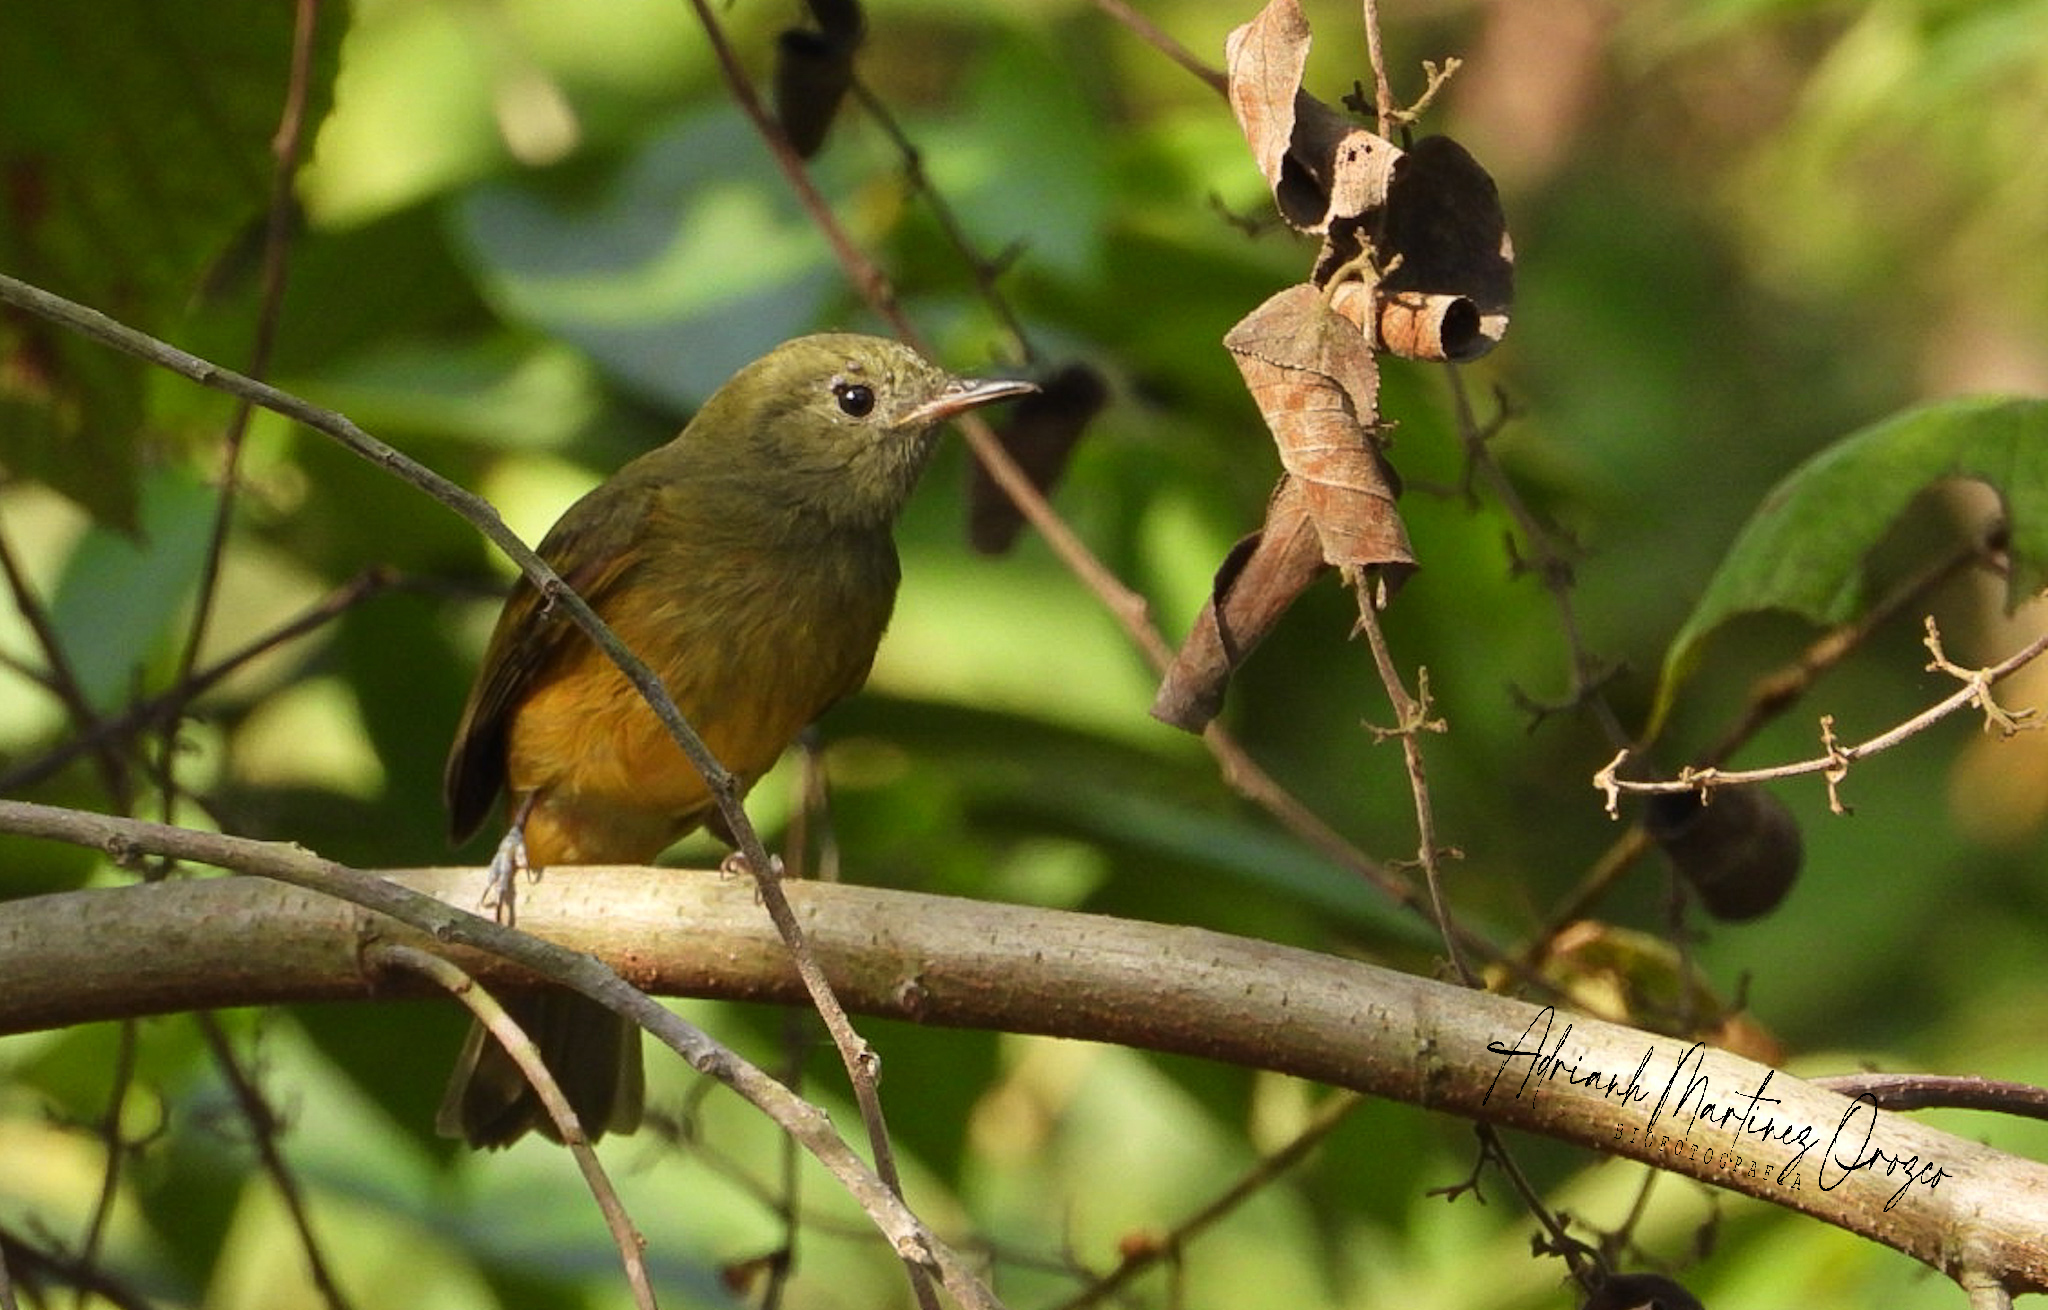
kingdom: Animalia
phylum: Chordata
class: Aves
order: Passeriformes
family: Tyrannidae
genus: Mionectes
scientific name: Mionectes oleagineus
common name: Ochre-bellied flycatcher
